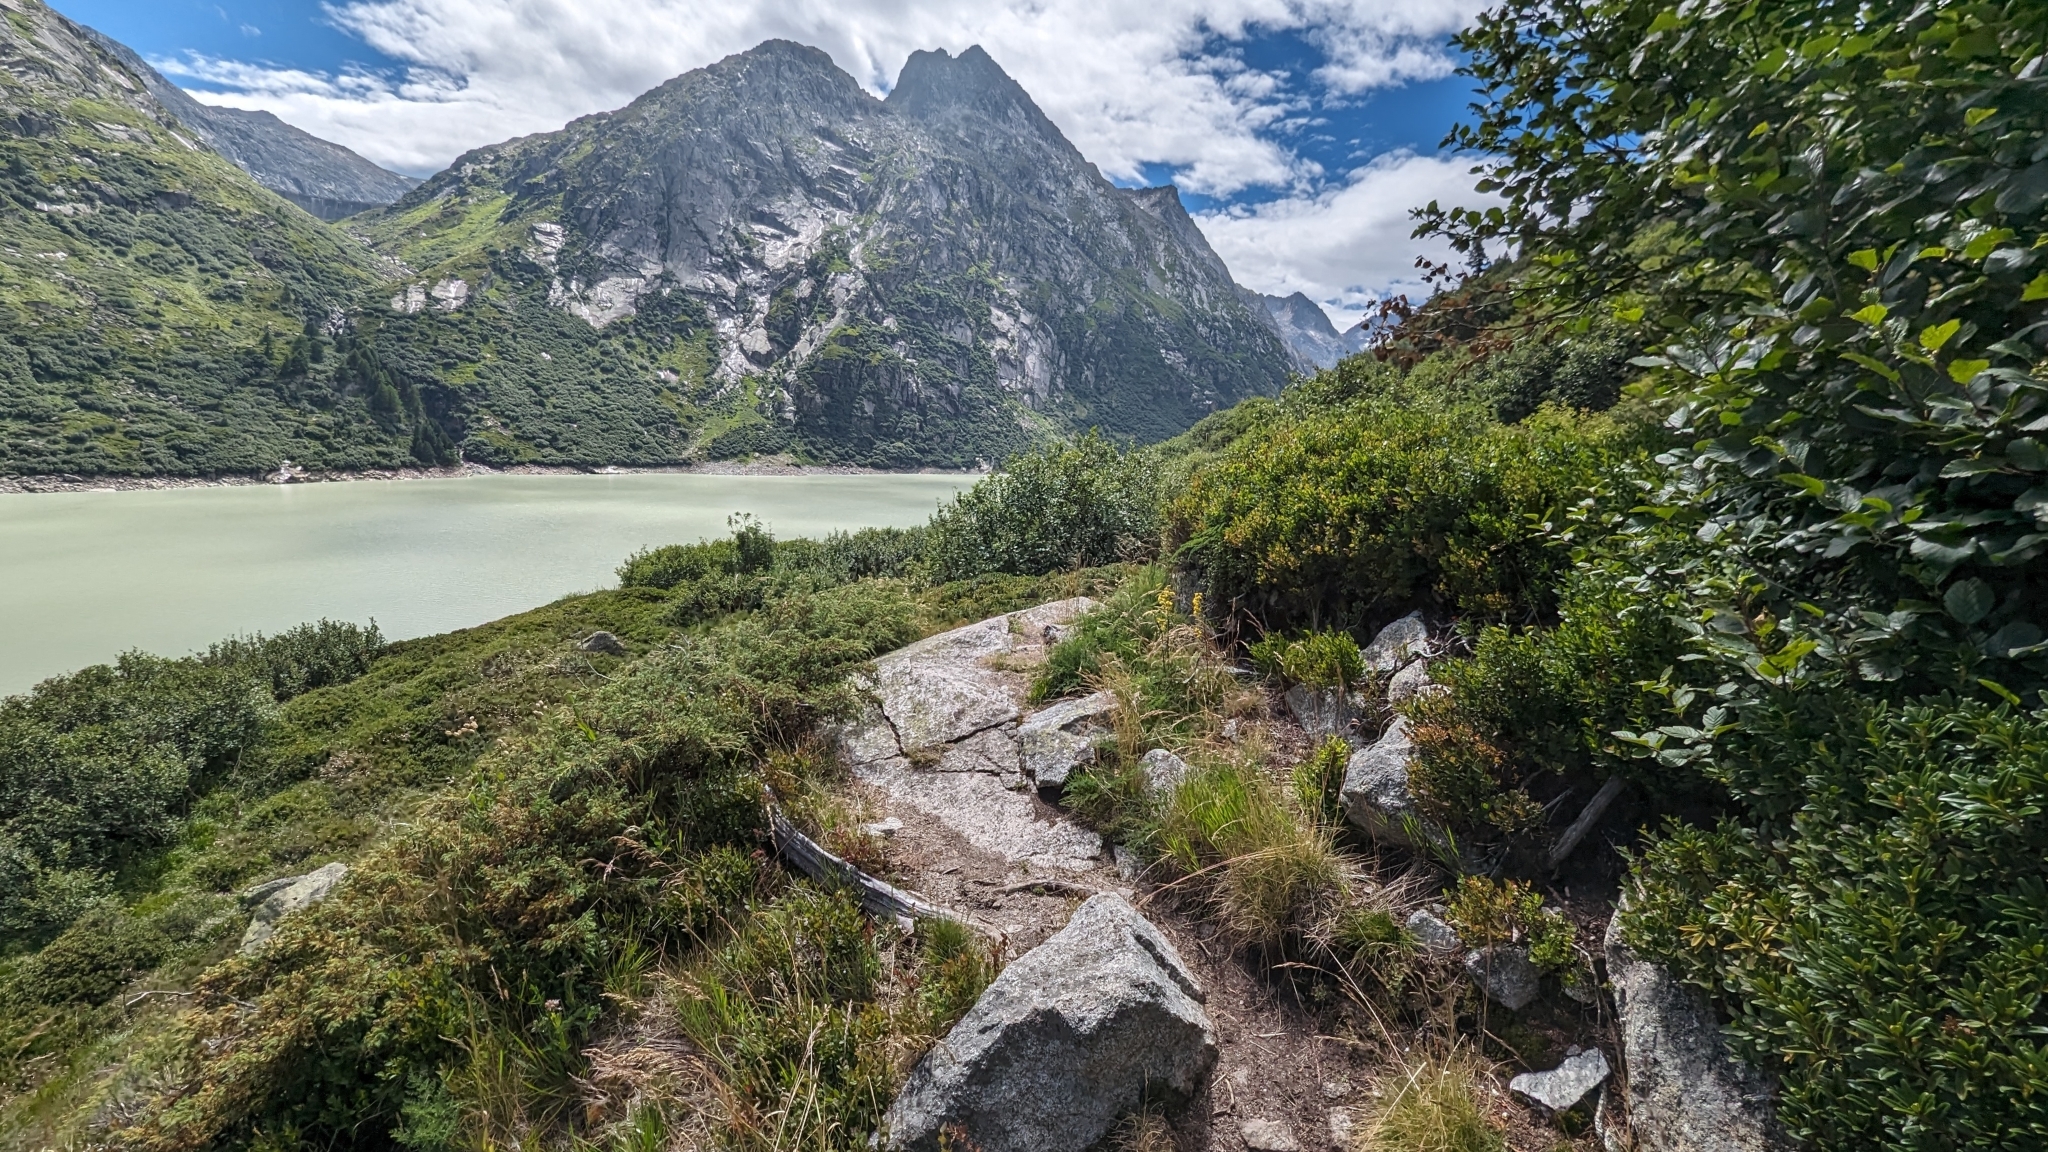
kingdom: Animalia
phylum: Arthropoda
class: Insecta
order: Hymenoptera
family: Formicidae
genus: Formica
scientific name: Formica
